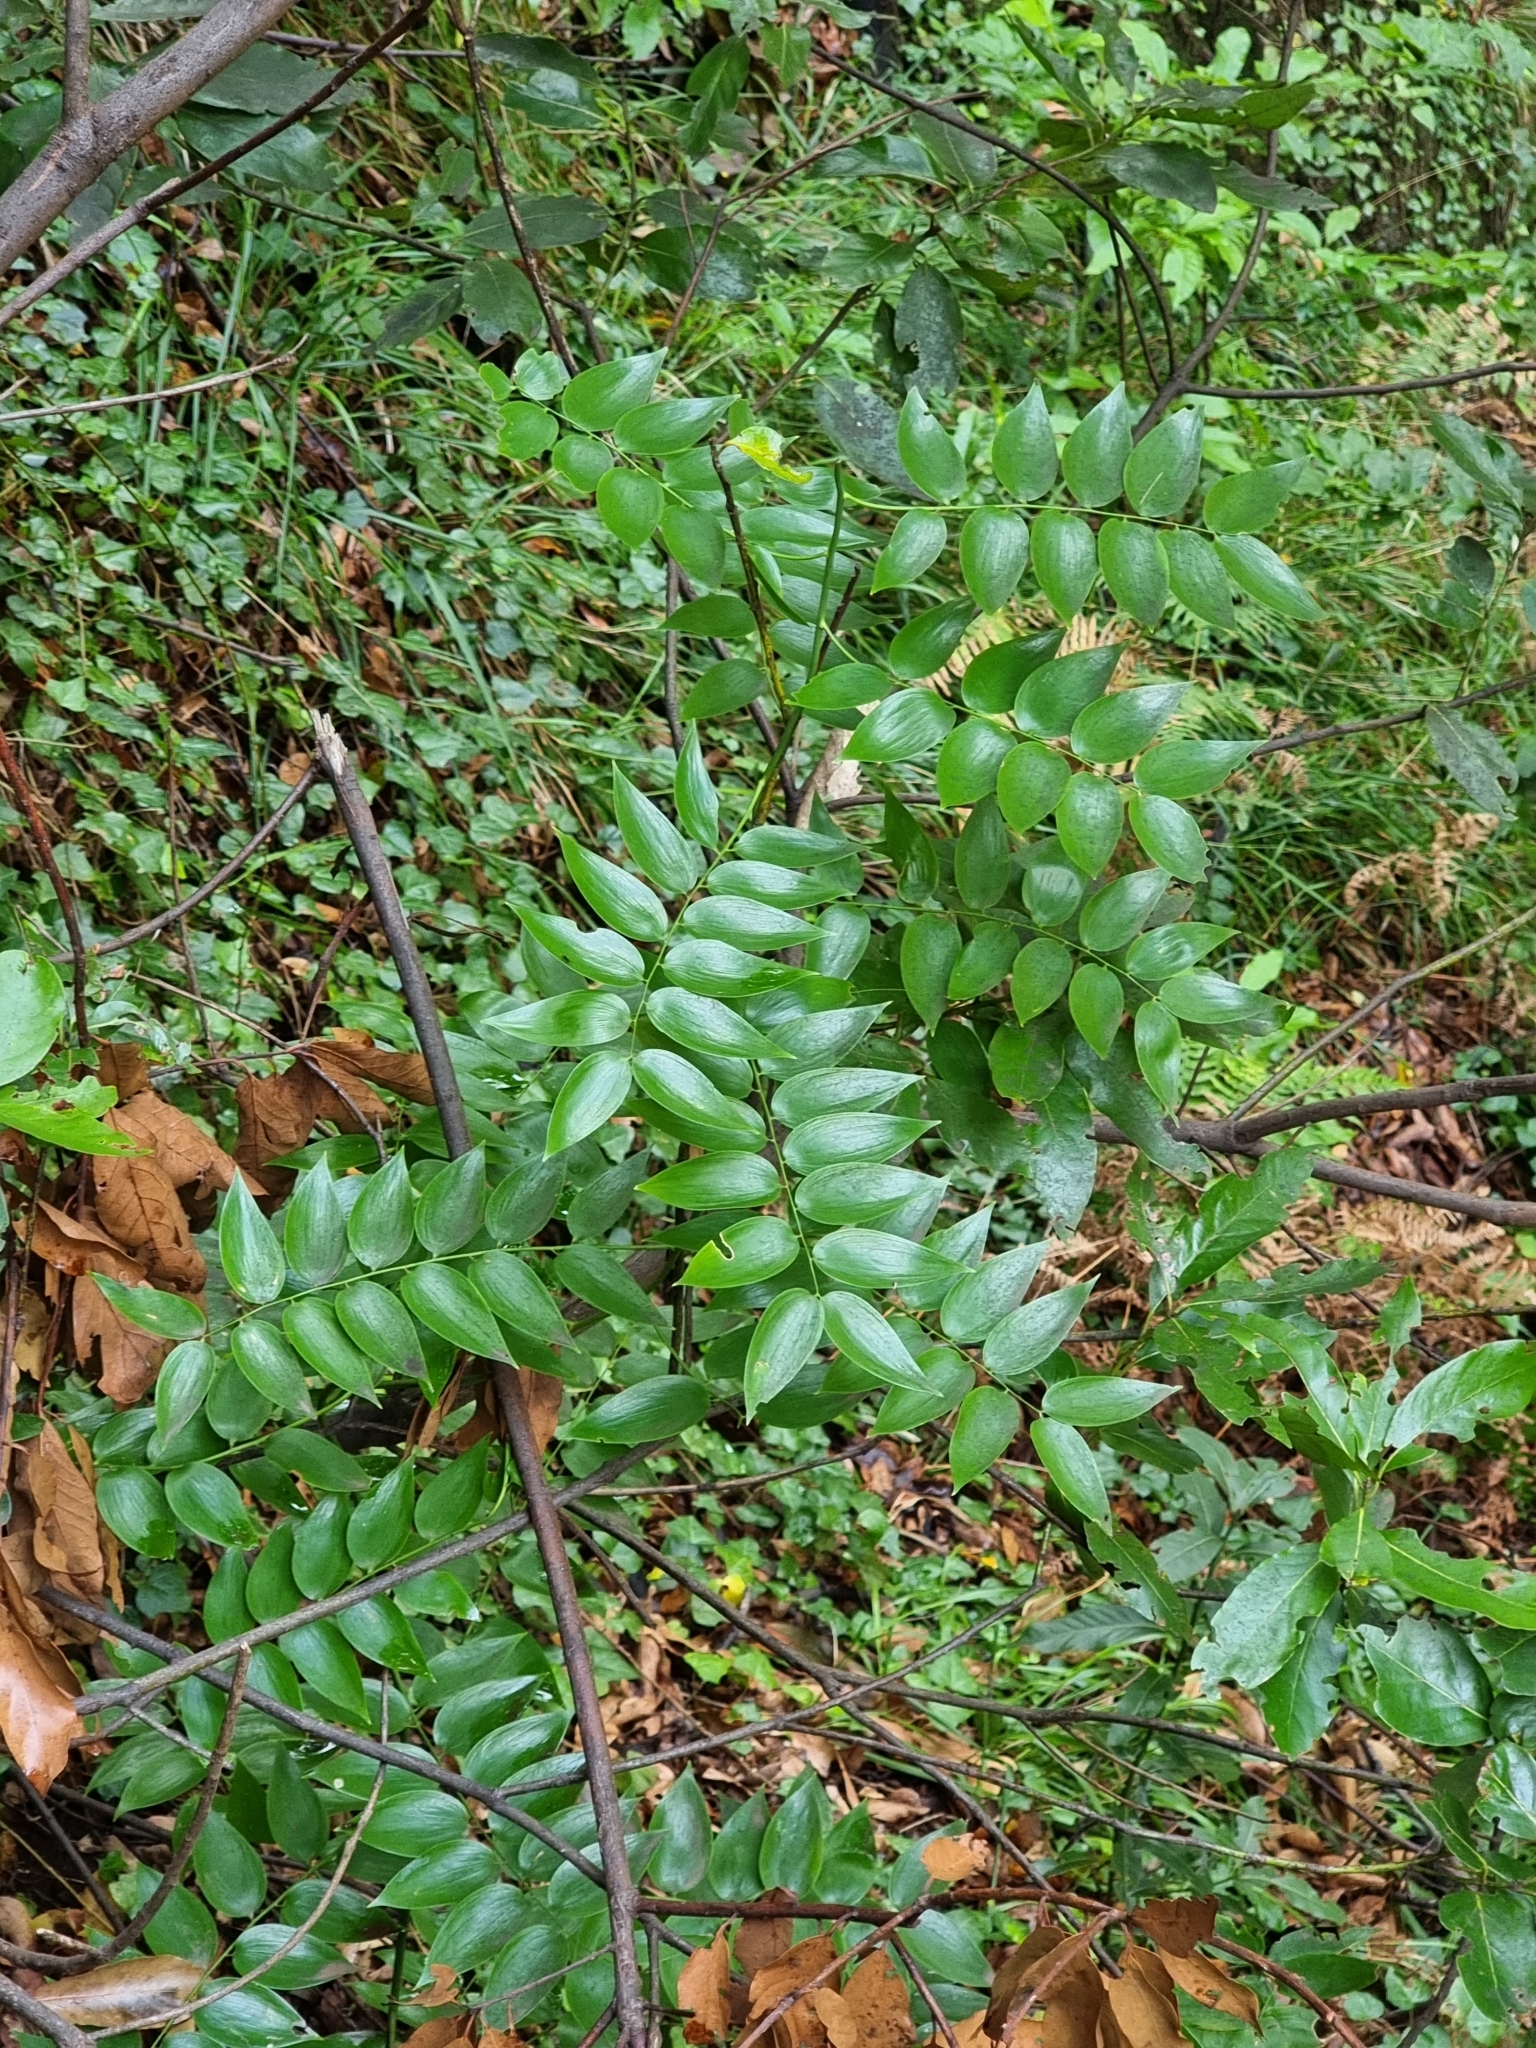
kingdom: Plantae
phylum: Tracheophyta
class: Liliopsida
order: Asparagales
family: Asparagaceae
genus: Semele
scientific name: Semele androgyna
